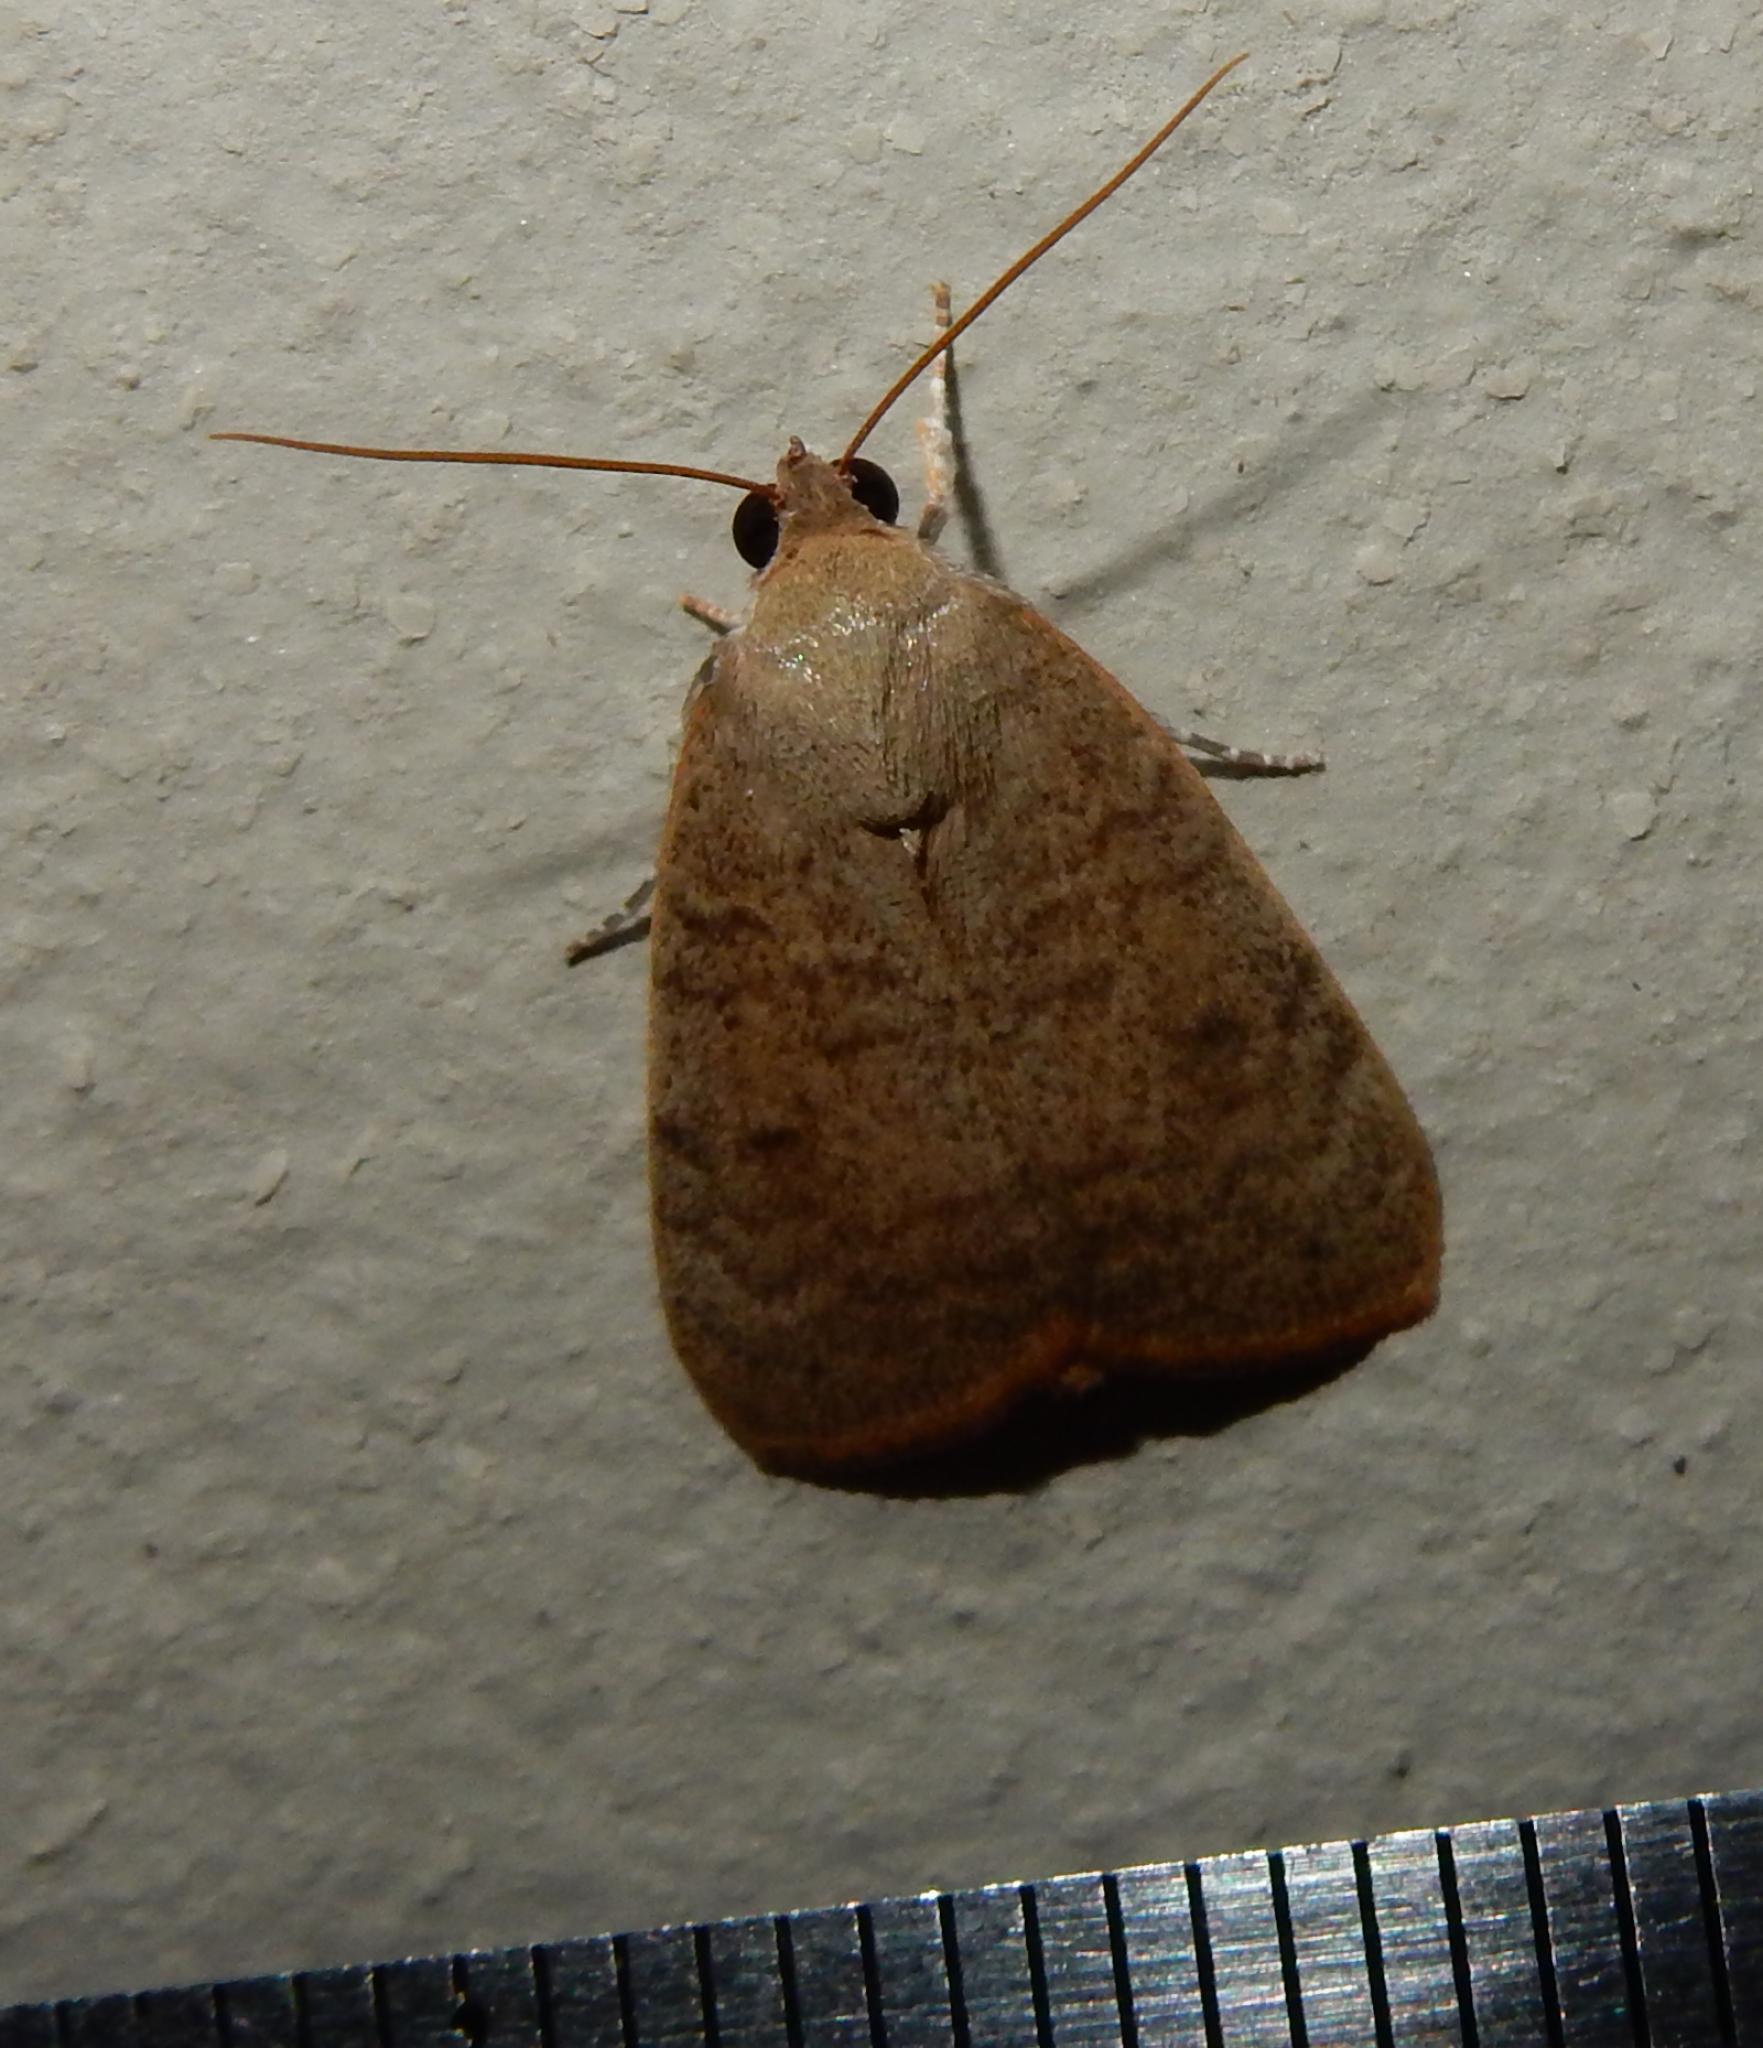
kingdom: Animalia
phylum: Arthropoda
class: Insecta
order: Lepidoptera
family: Nolidae
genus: Maurilia
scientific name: Maurilia arcuata
